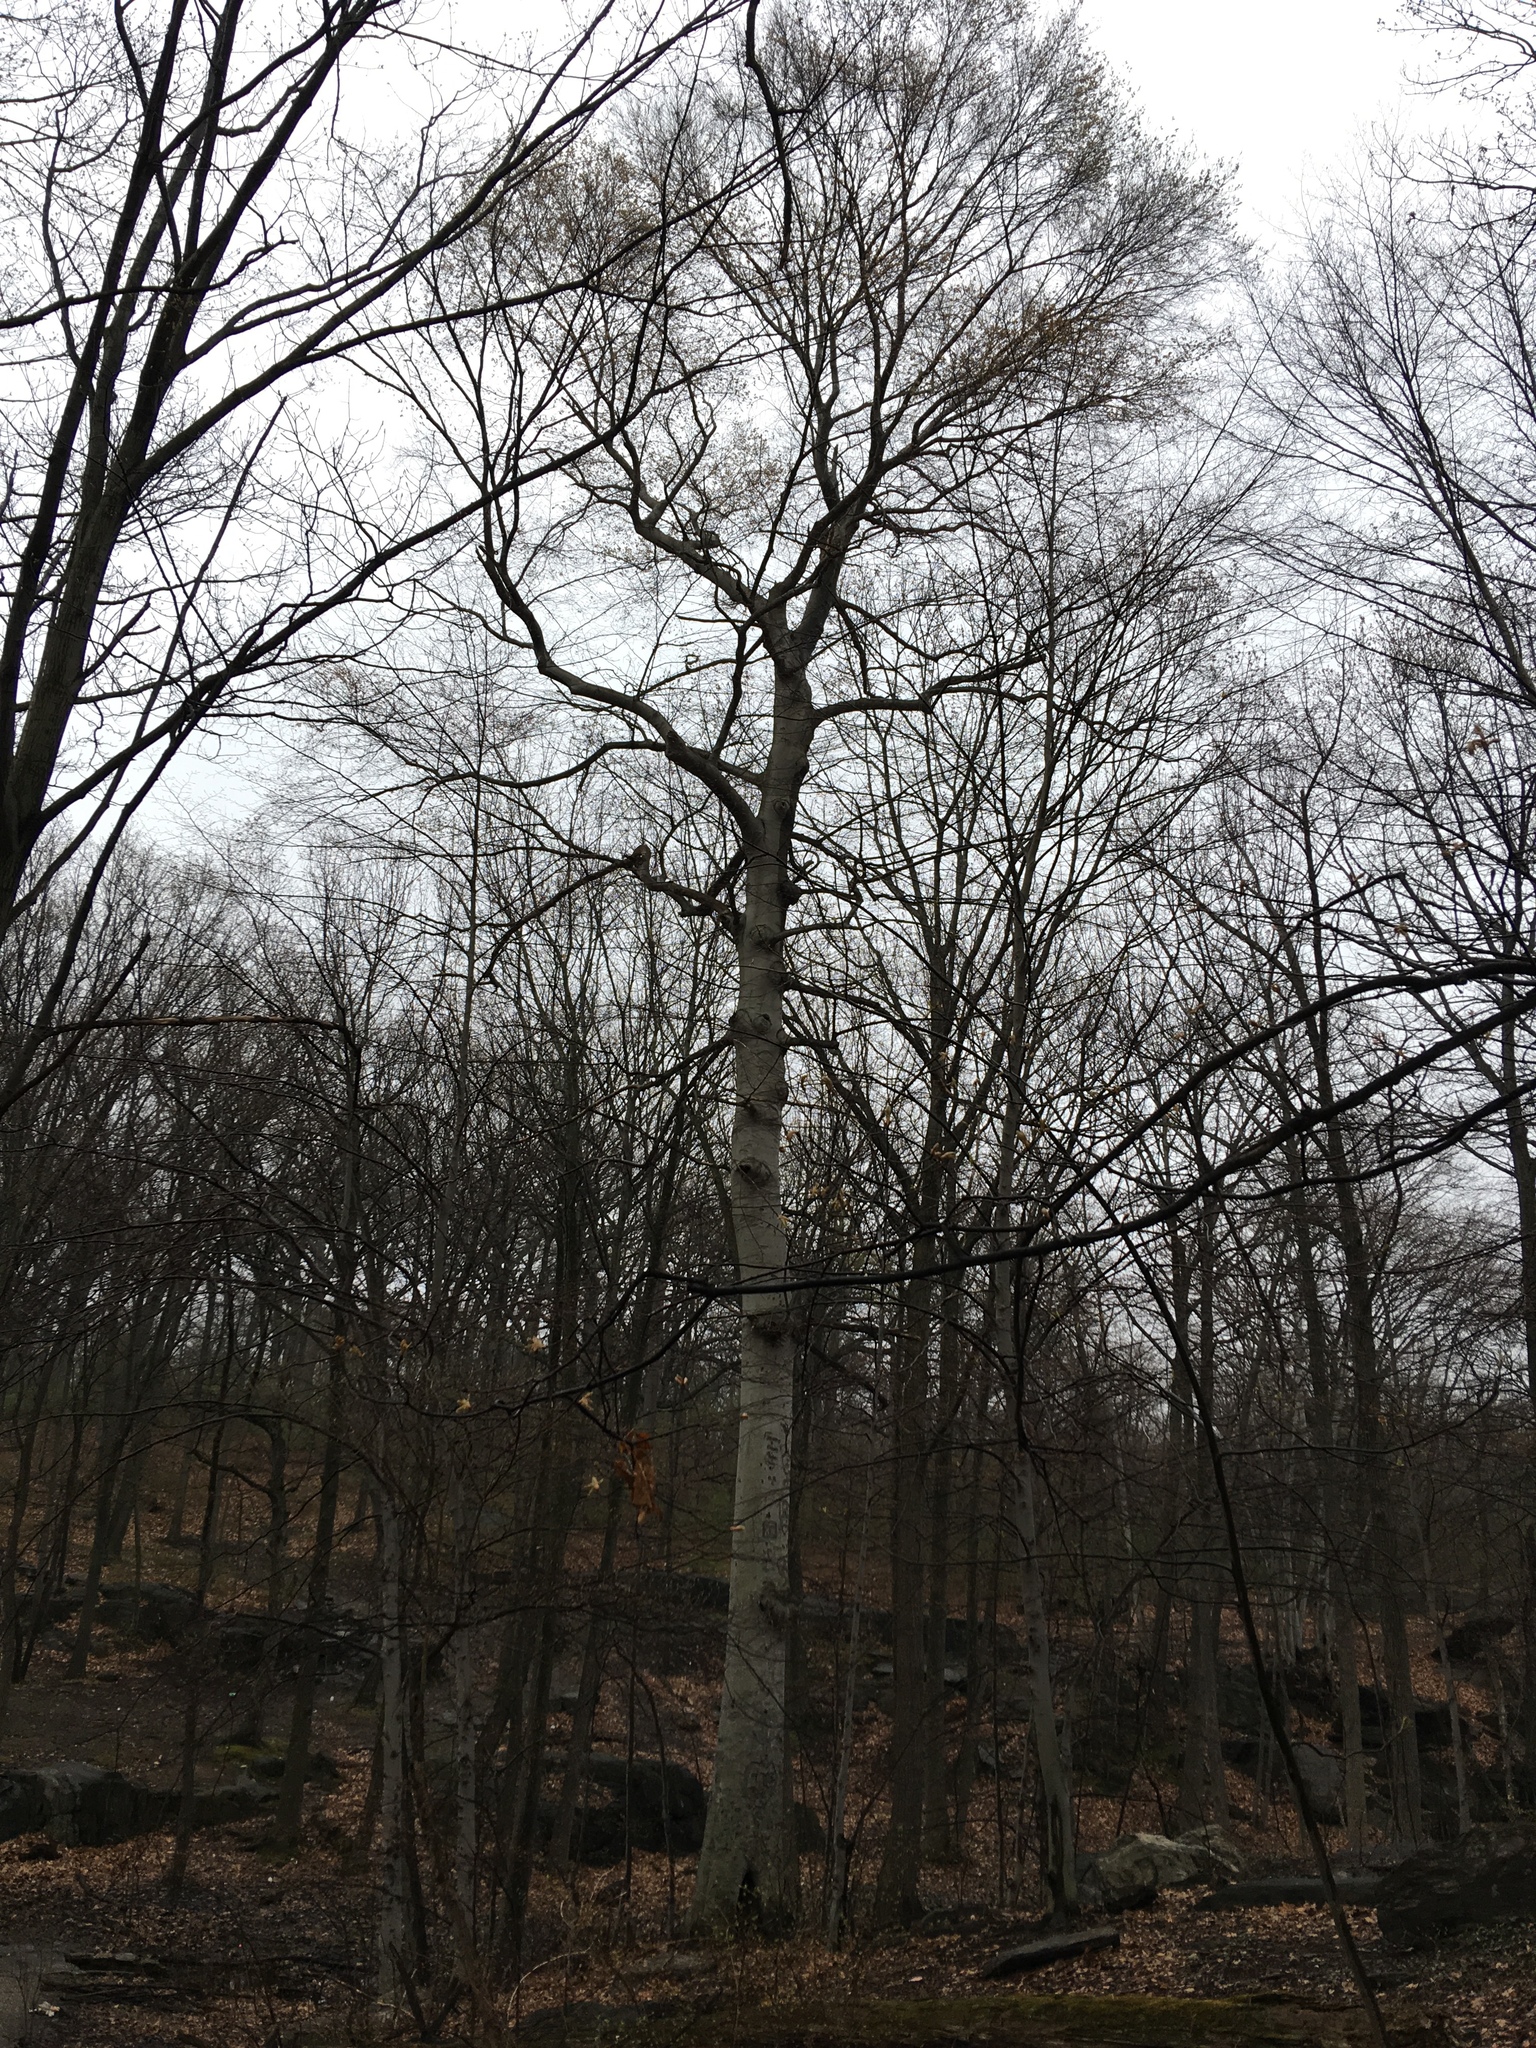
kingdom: Plantae
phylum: Tracheophyta
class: Magnoliopsida
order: Fagales
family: Fagaceae
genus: Fagus
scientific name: Fagus grandifolia
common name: American beech
